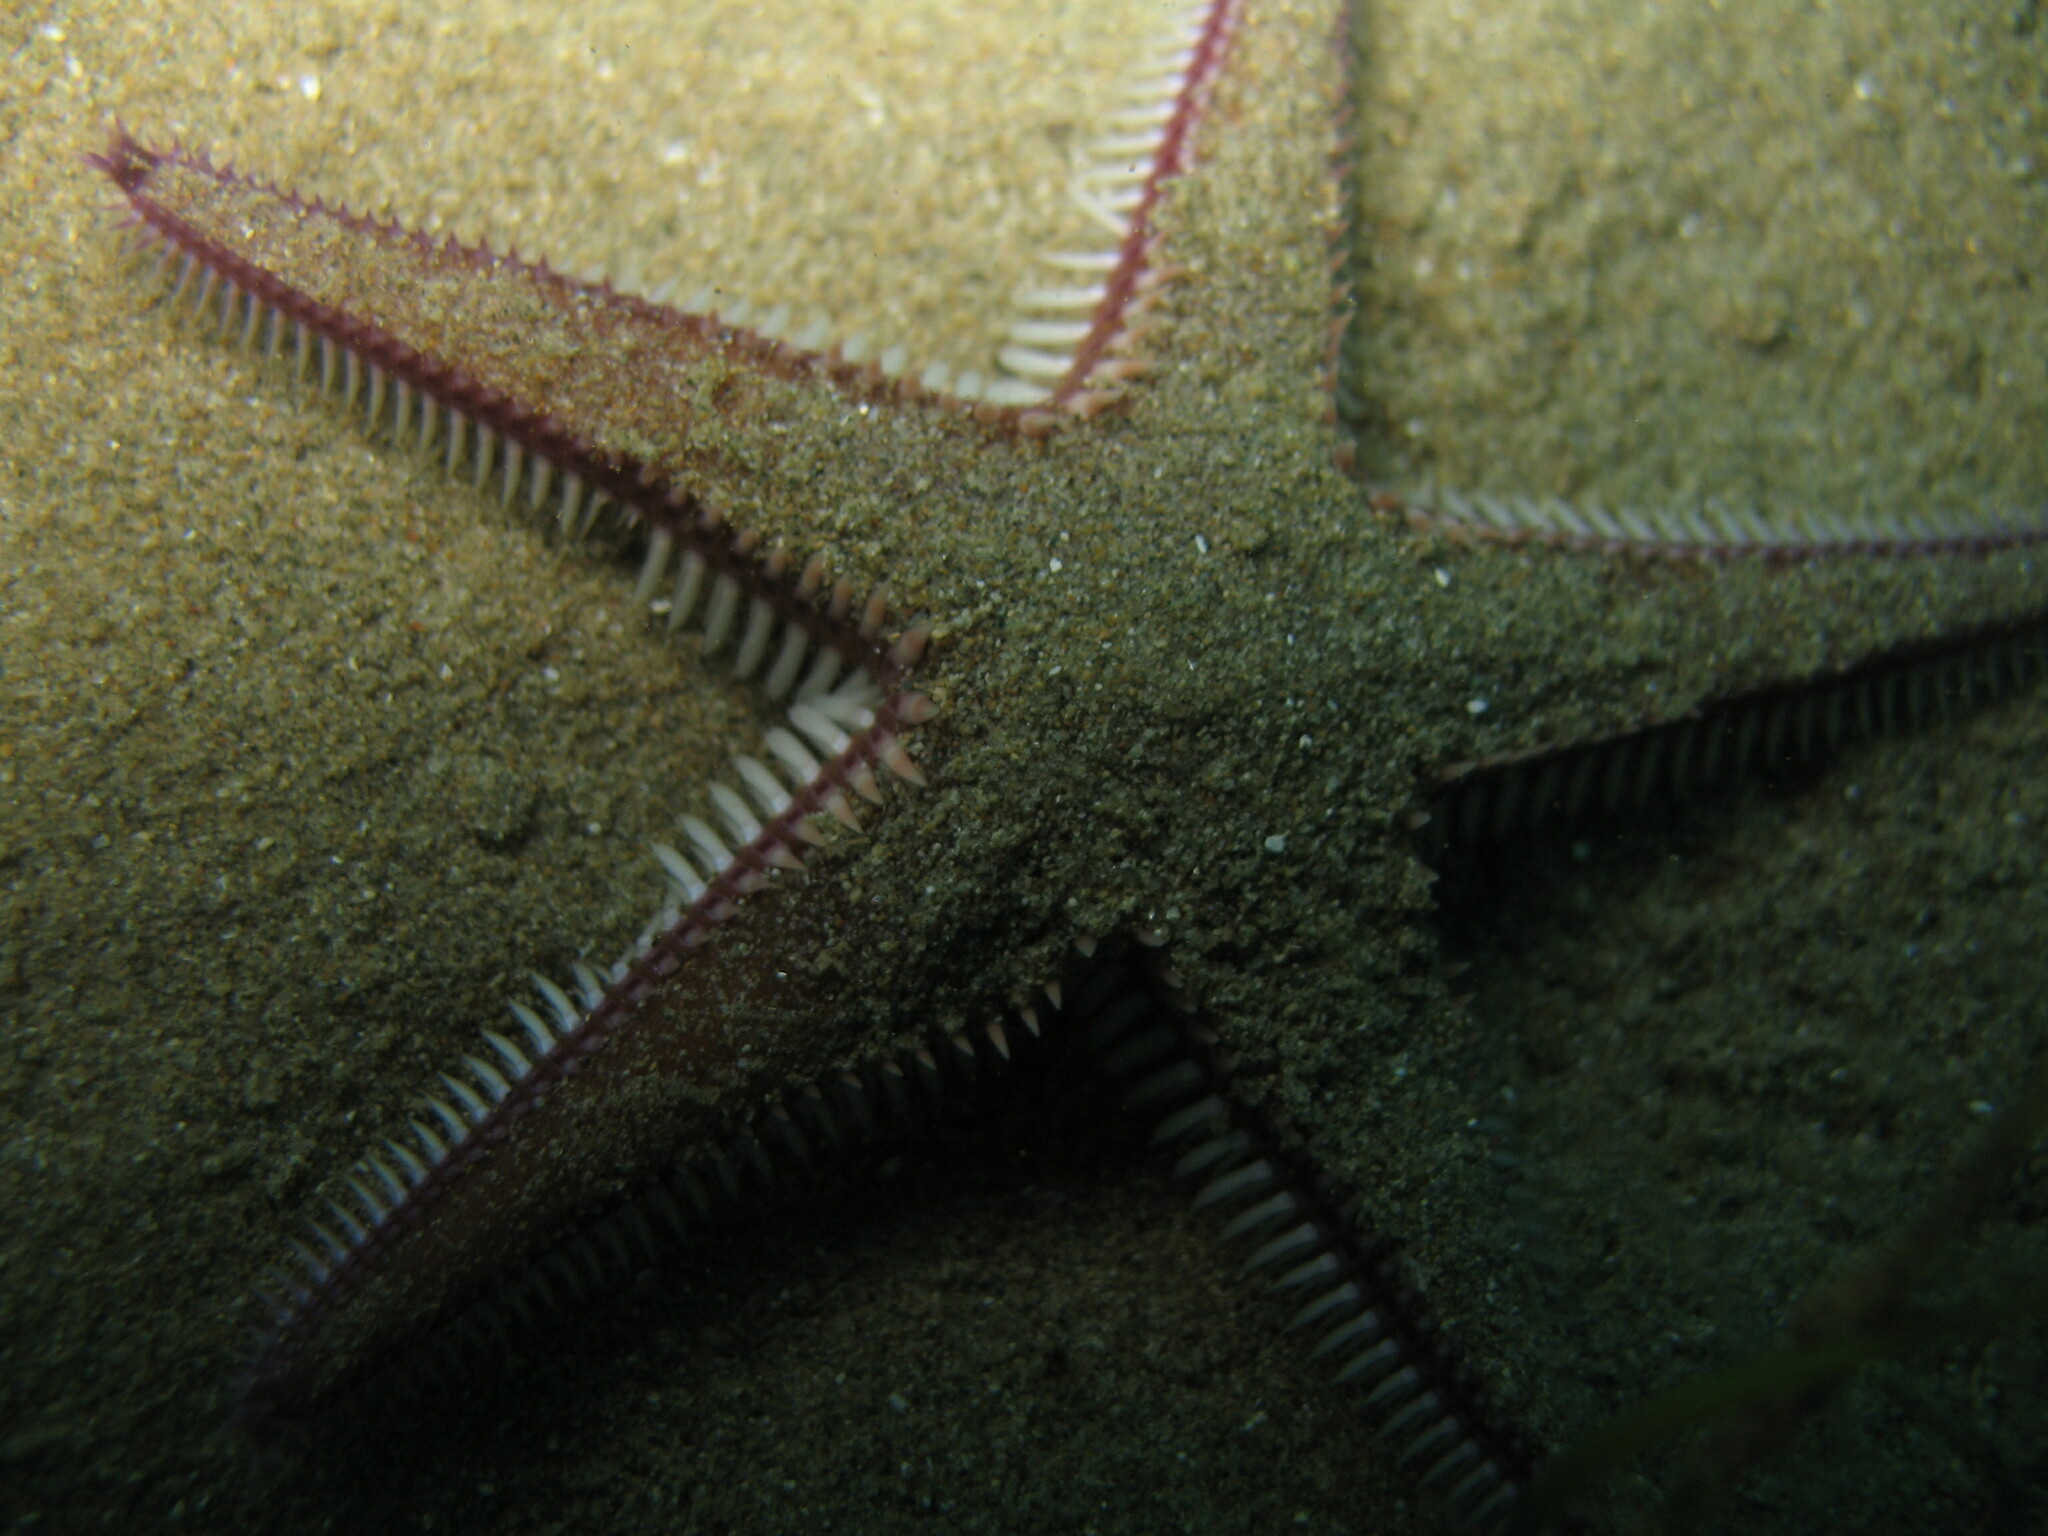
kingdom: Animalia
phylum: Echinodermata
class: Asteroidea
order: Paxillosida
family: Astropectinidae
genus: Astropecten
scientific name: Astropecten bispinosus
